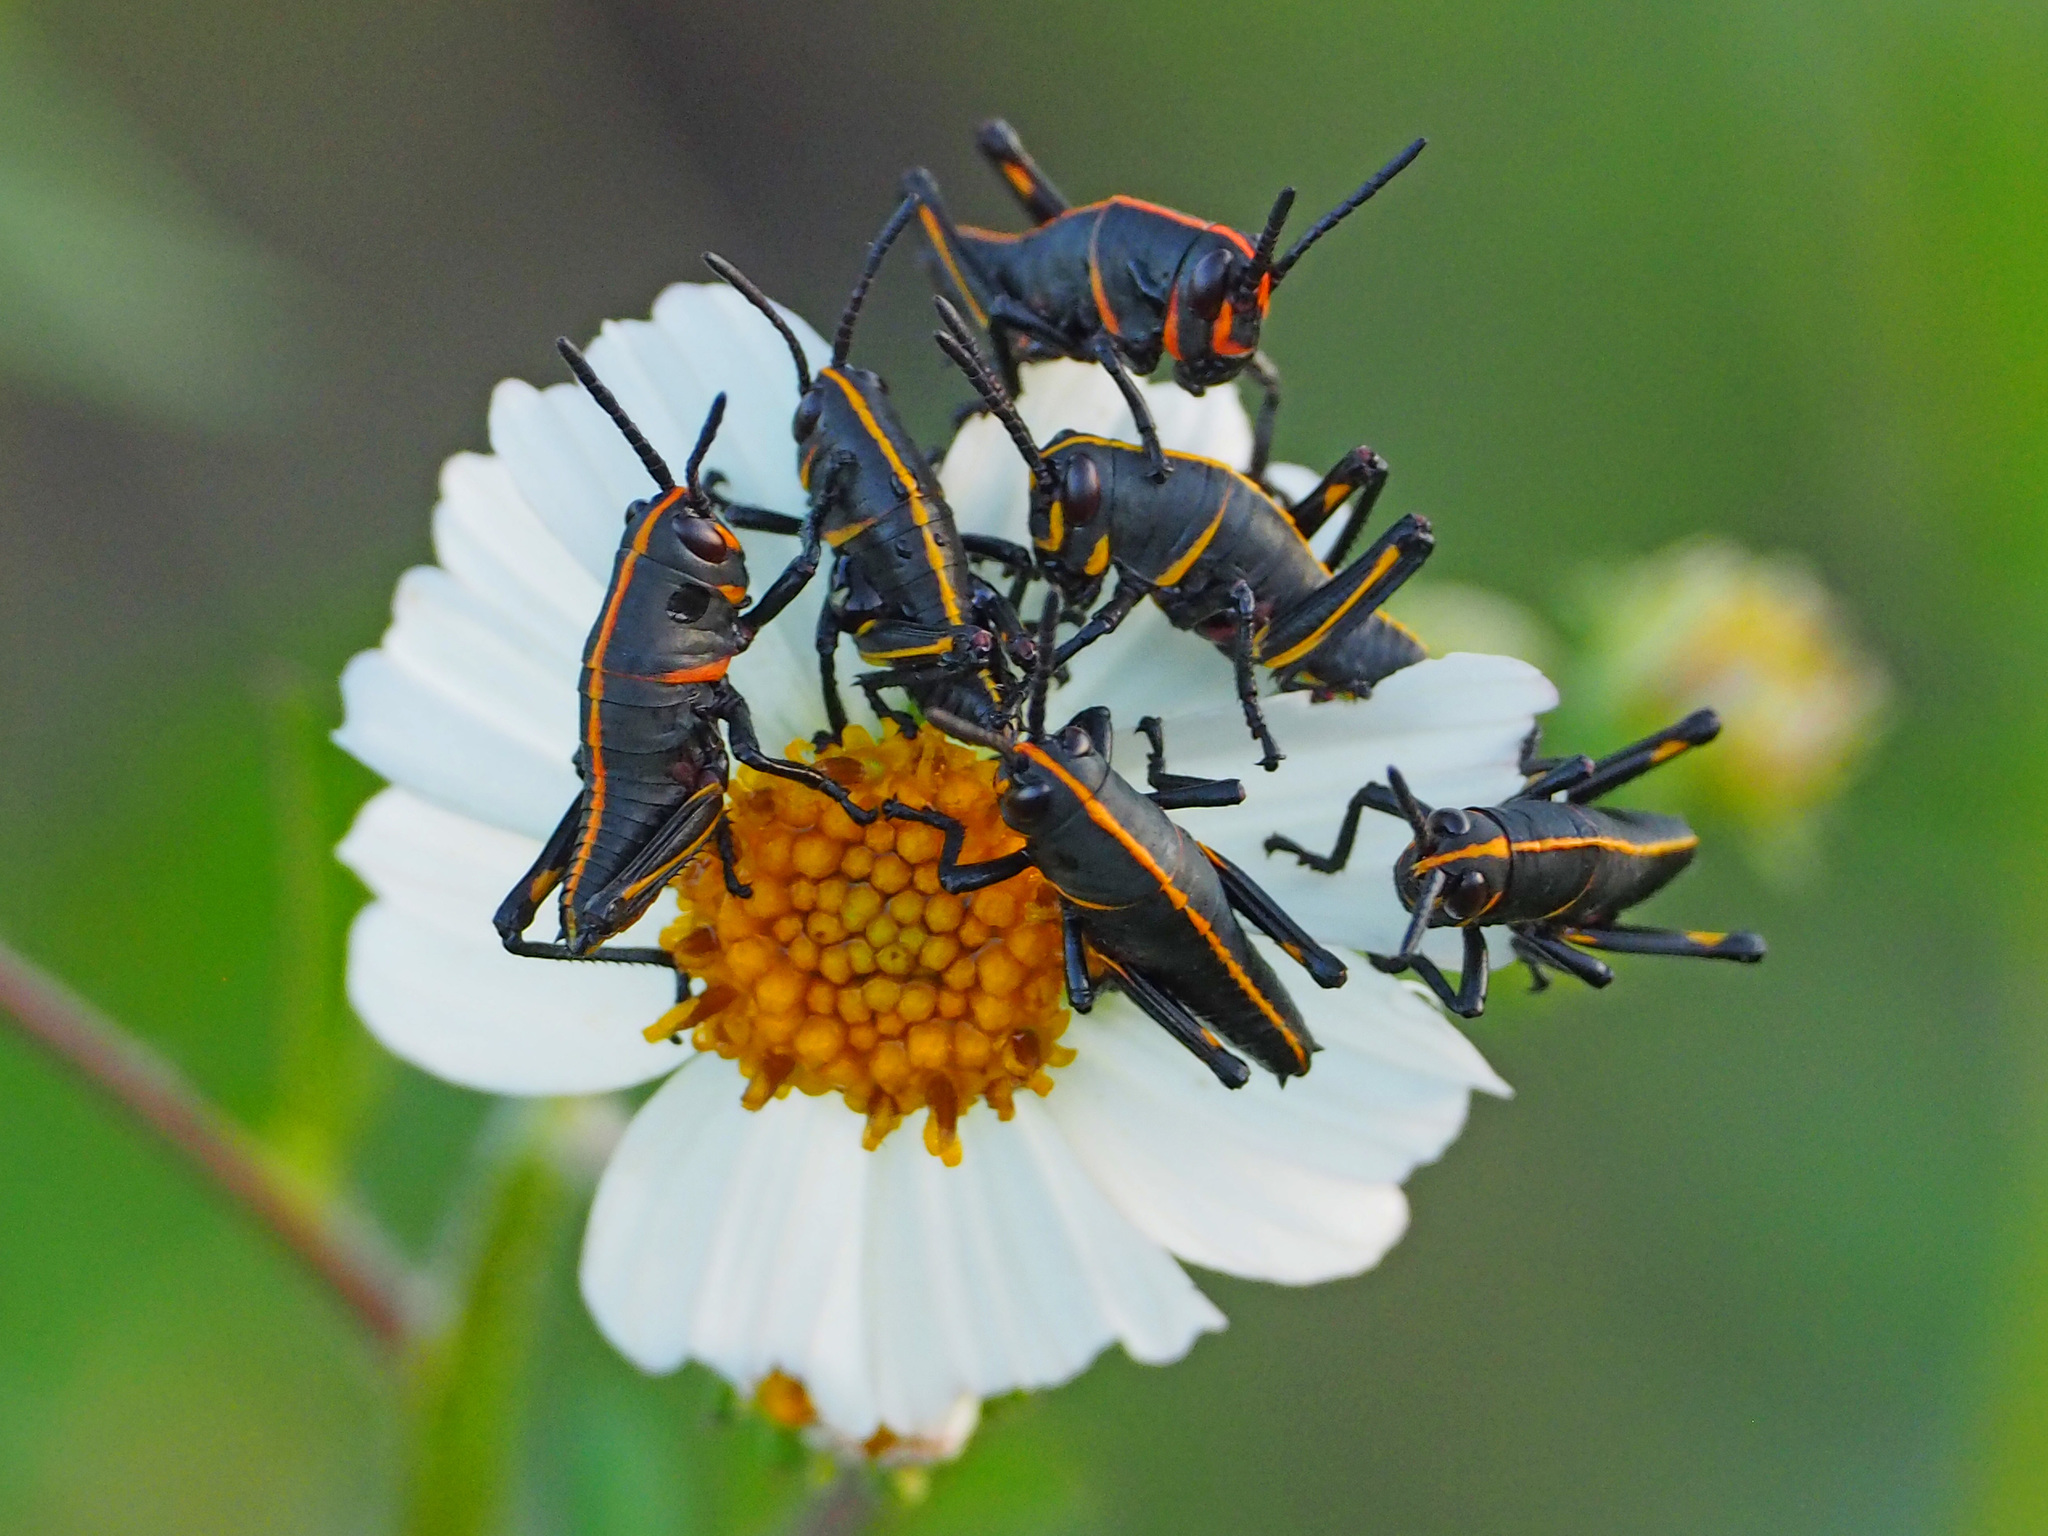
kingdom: Animalia
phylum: Arthropoda
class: Insecta
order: Orthoptera
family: Romaleidae
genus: Romalea
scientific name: Romalea microptera
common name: Eastern lubber grasshopper
